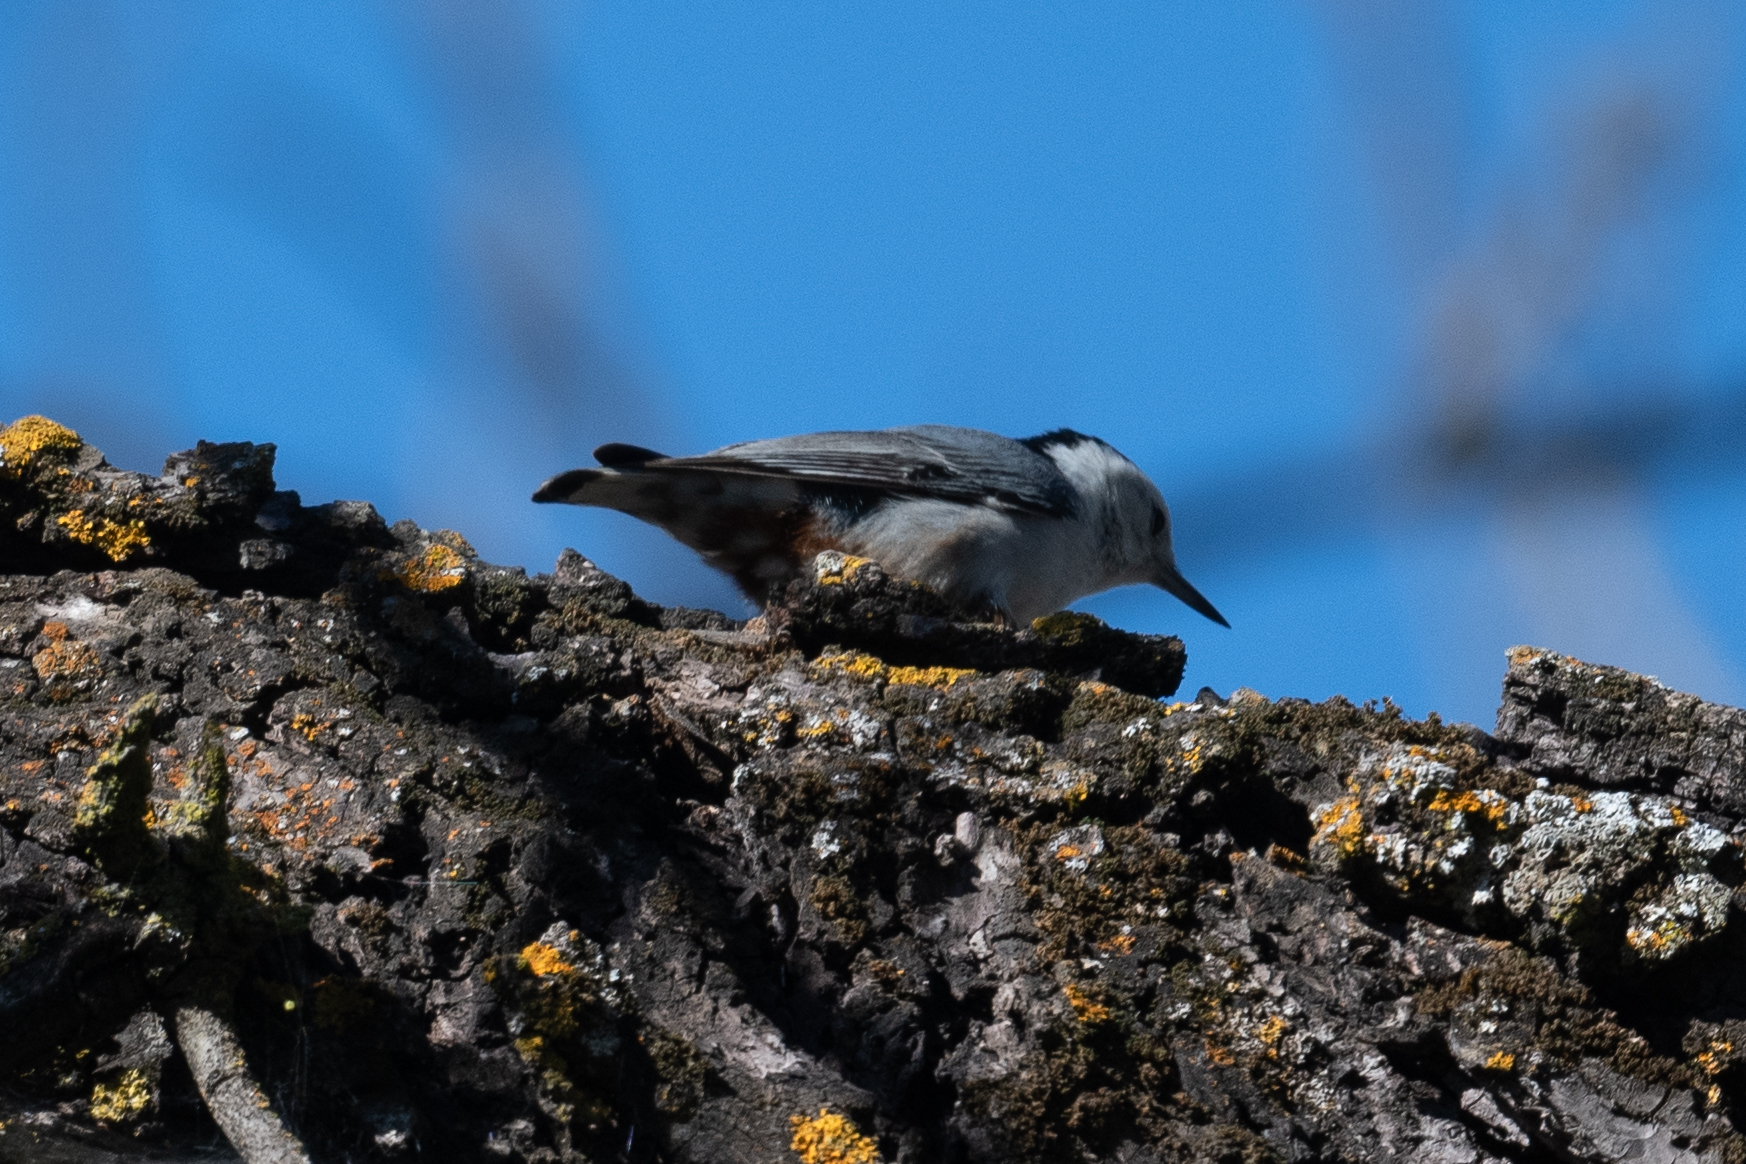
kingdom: Animalia
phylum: Chordata
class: Aves
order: Passeriformes
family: Sittidae
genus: Sitta
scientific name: Sitta carolinensis
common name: White-breasted nuthatch
